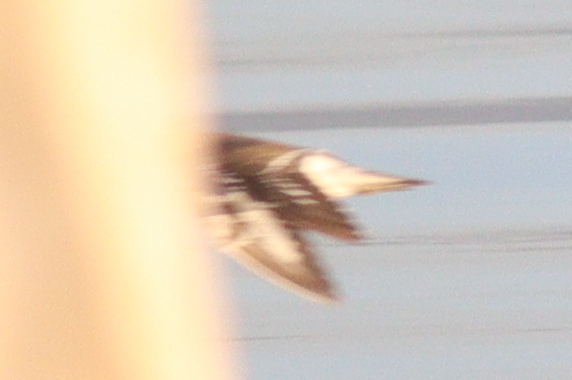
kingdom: Animalia
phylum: Chordata
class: Aves
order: Charadriiformes
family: Scolopacidae
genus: Actitis
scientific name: Actitis hypoleucos
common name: Common sandpiper
